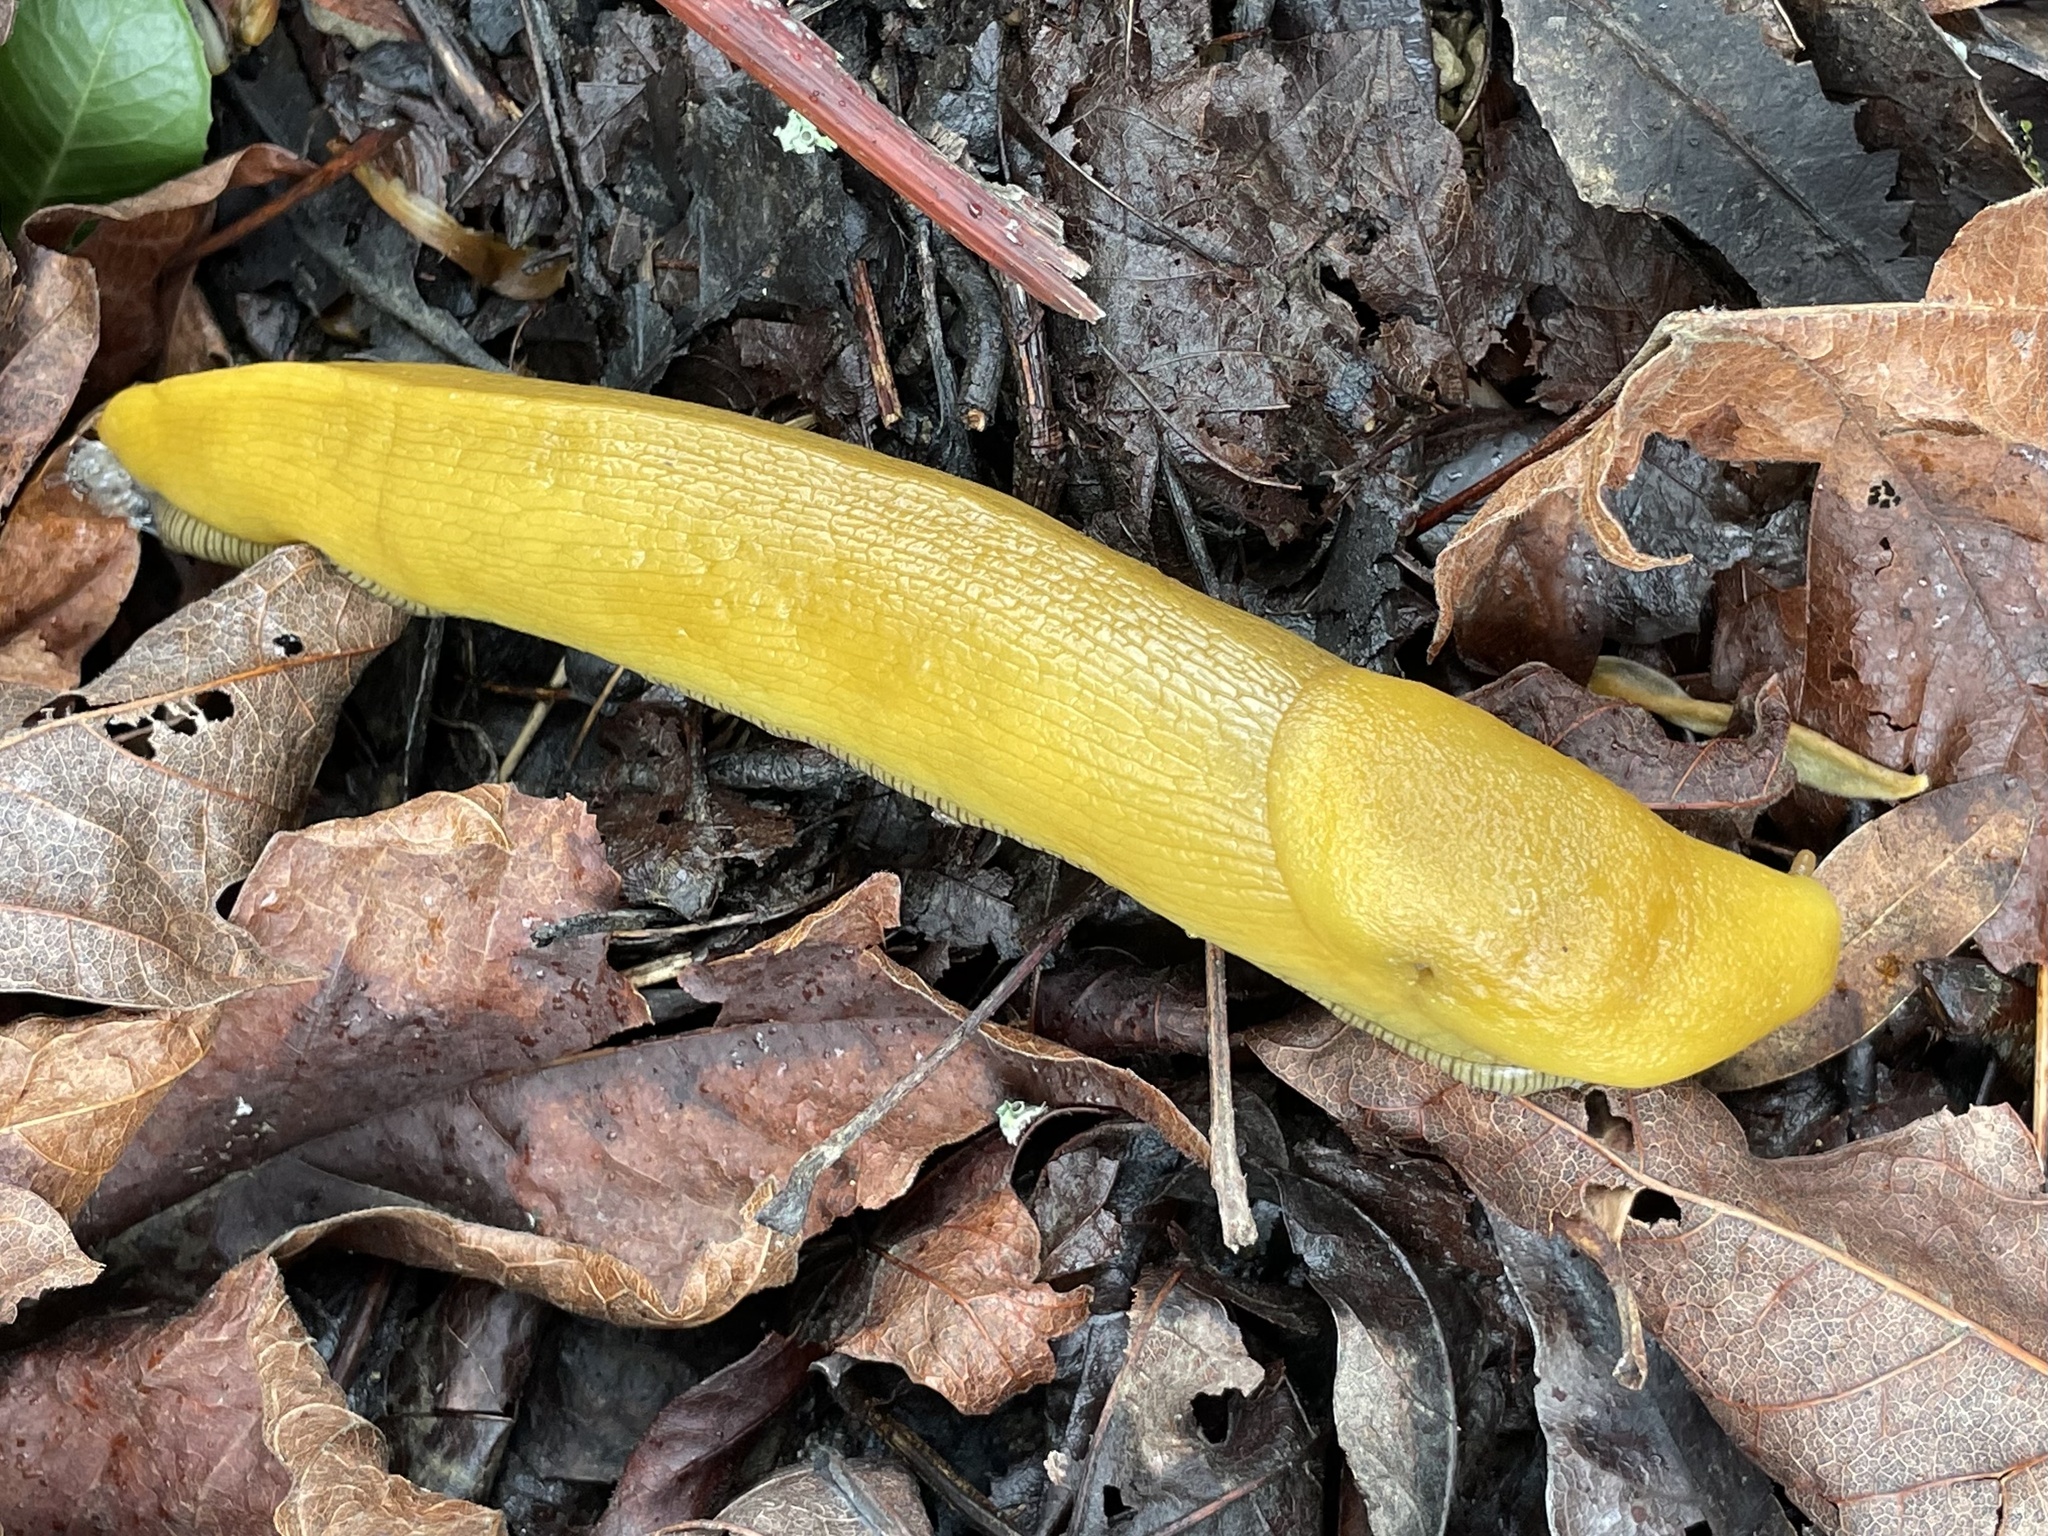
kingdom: Animalia
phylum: Mollusca
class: Gastropoda
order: Stylommatophora
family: Ariolimacidae
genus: Ariolimax
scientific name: Ariolimax stramineus
